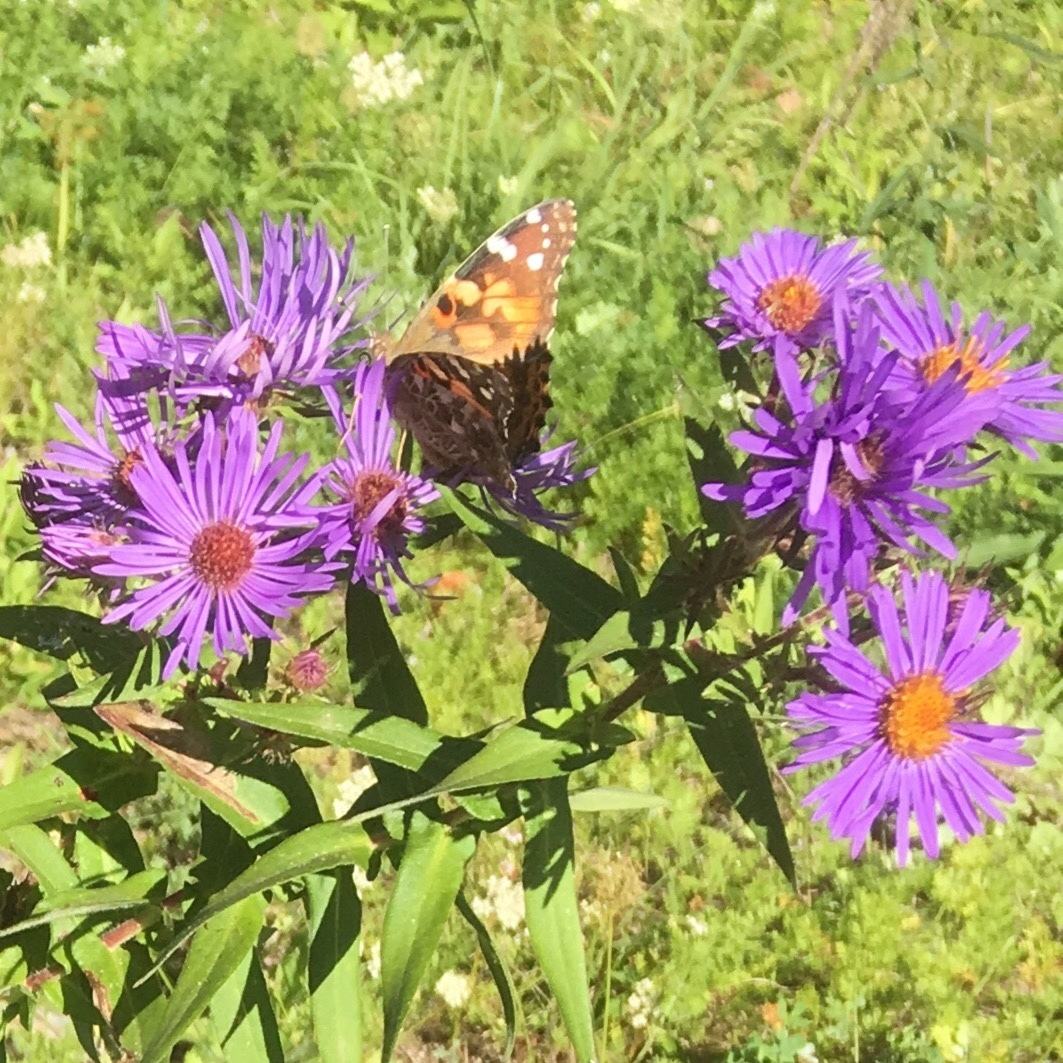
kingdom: Plantae
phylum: Tracheophyta
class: Magnoliopsida
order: Asterales
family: Asteraceae
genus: Symphyotrichum
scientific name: Symphyotrichum novae-angliae
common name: Michaelmas daisy
